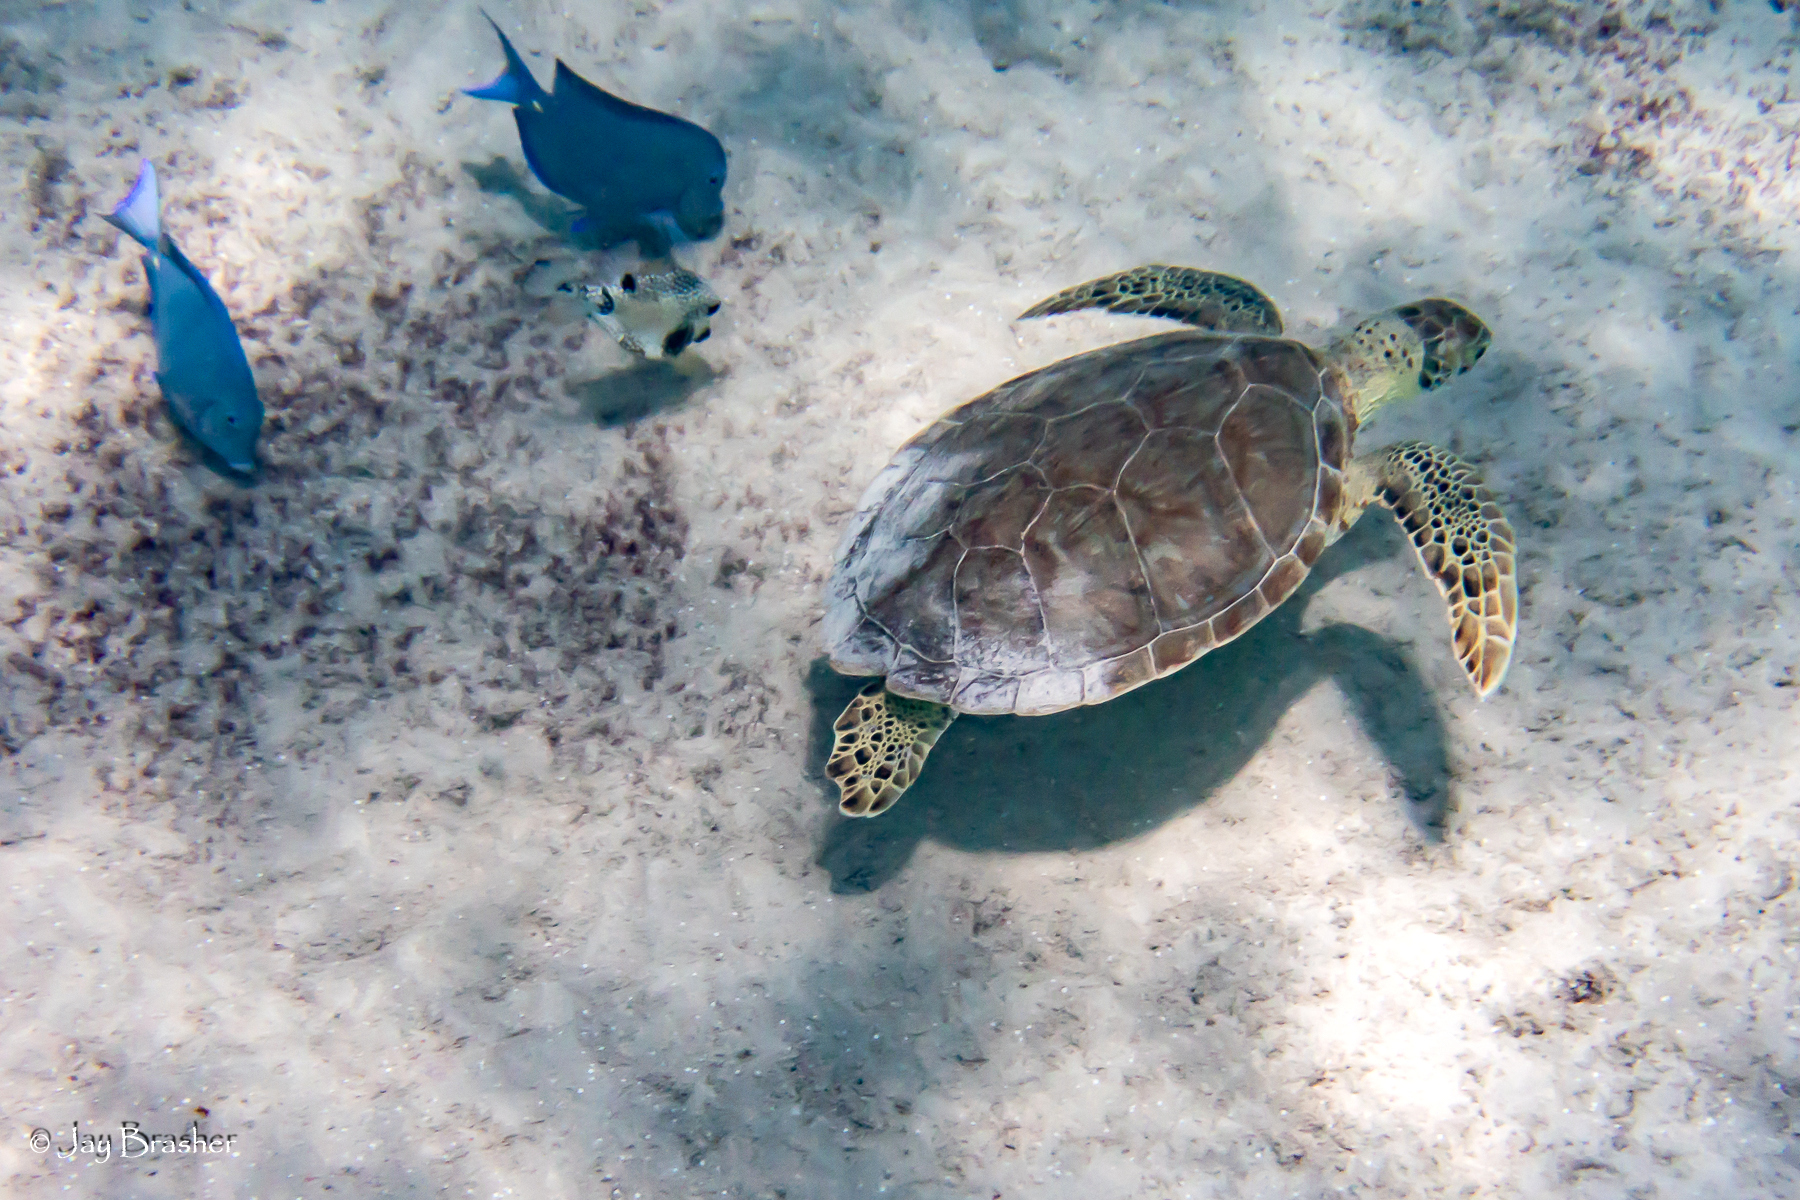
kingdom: Animalia
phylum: Chordata
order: Perciformes
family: Acanthuridae
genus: Acanthurus
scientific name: Acanthurus coeruleus
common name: Blue tang
